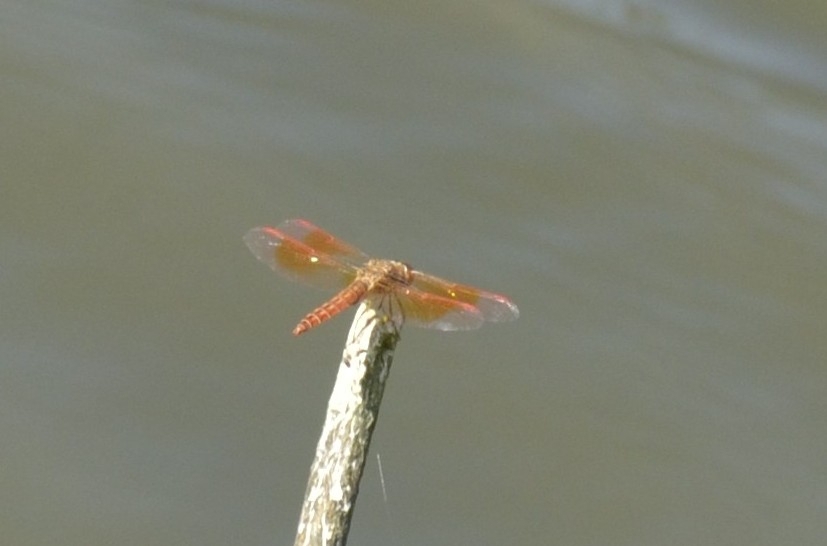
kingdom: Animalia
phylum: Arthropoda
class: Insecta
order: Odonata
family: Libellulidae
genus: Brachythemis
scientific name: Brachythemis contaminata
